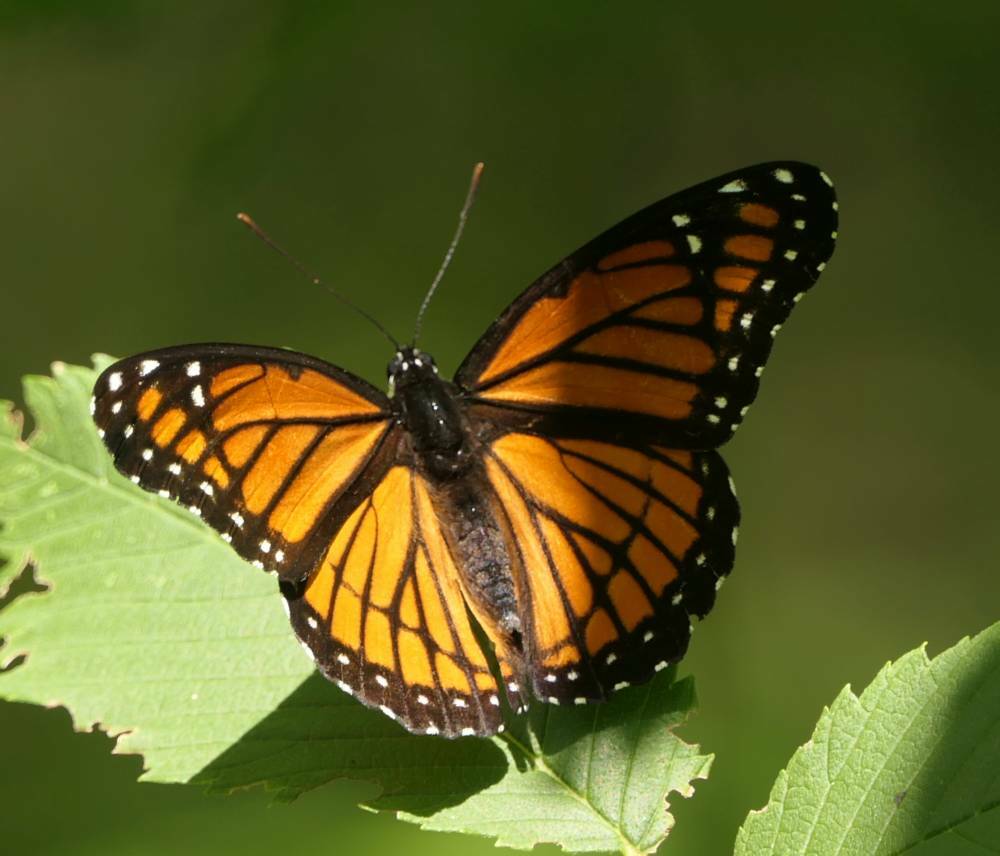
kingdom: Animalia
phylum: Arthropoda
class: Insecta
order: Lepidoptera
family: Nymphalidae
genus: Limenitis
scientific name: Limenitis archippus
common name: Viceroy
